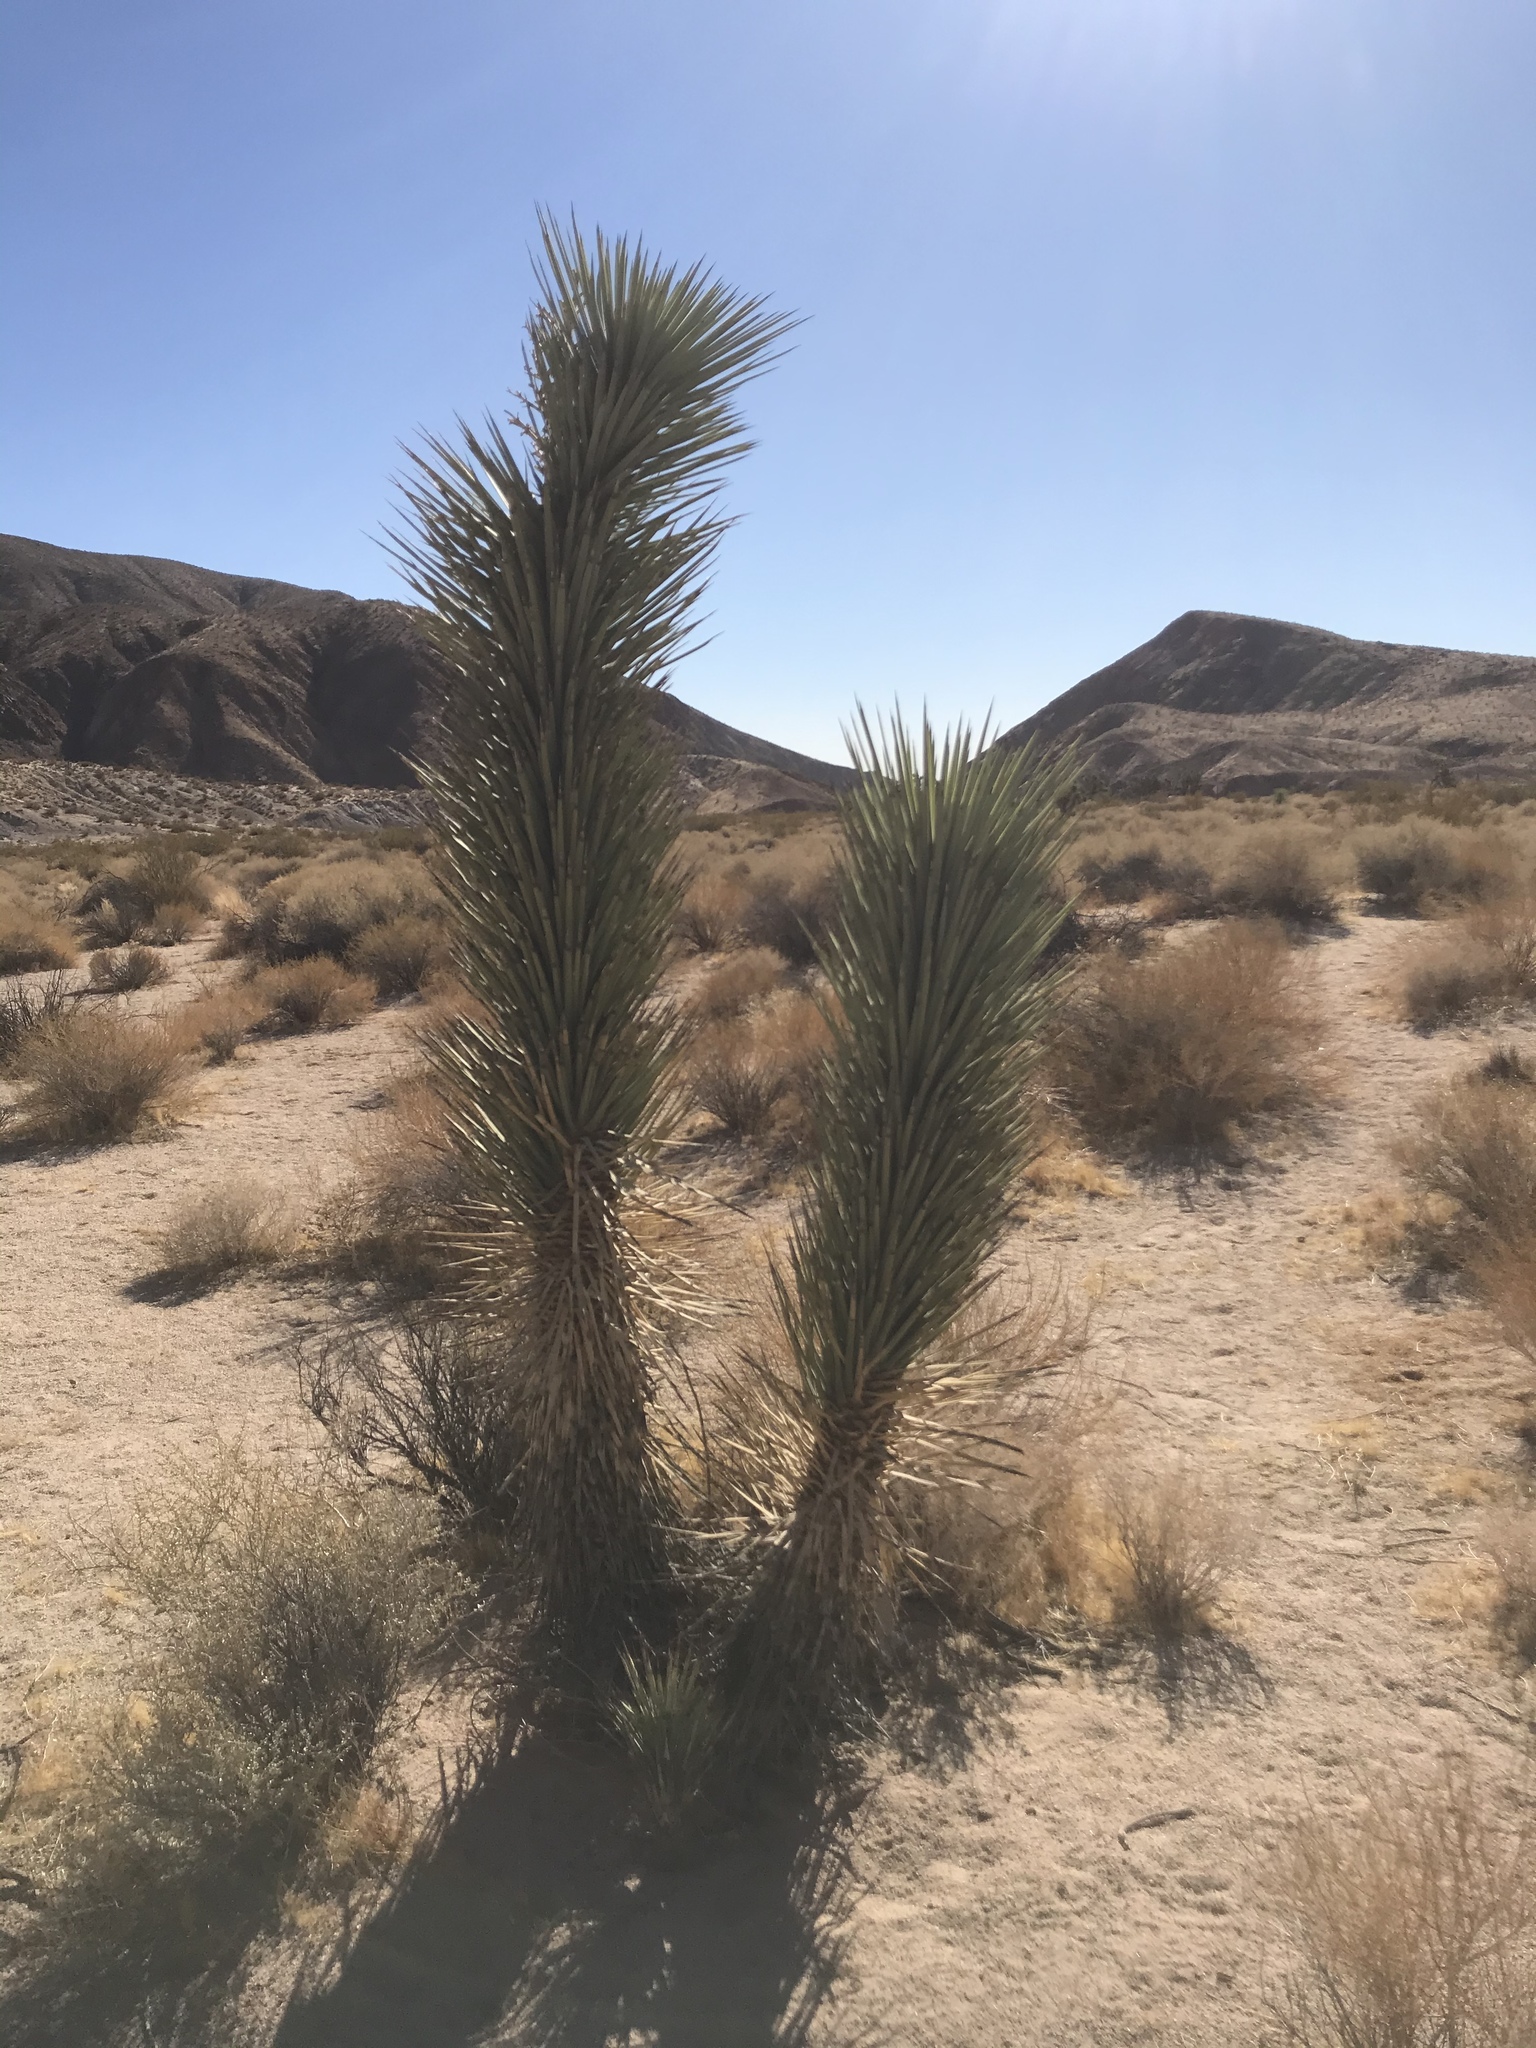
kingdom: Plantae
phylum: Tracheophyta
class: Liliopsida
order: Asparagales
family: Asparagaceae
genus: Yucca
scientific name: Yucca brevifolia
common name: Joshua tree
